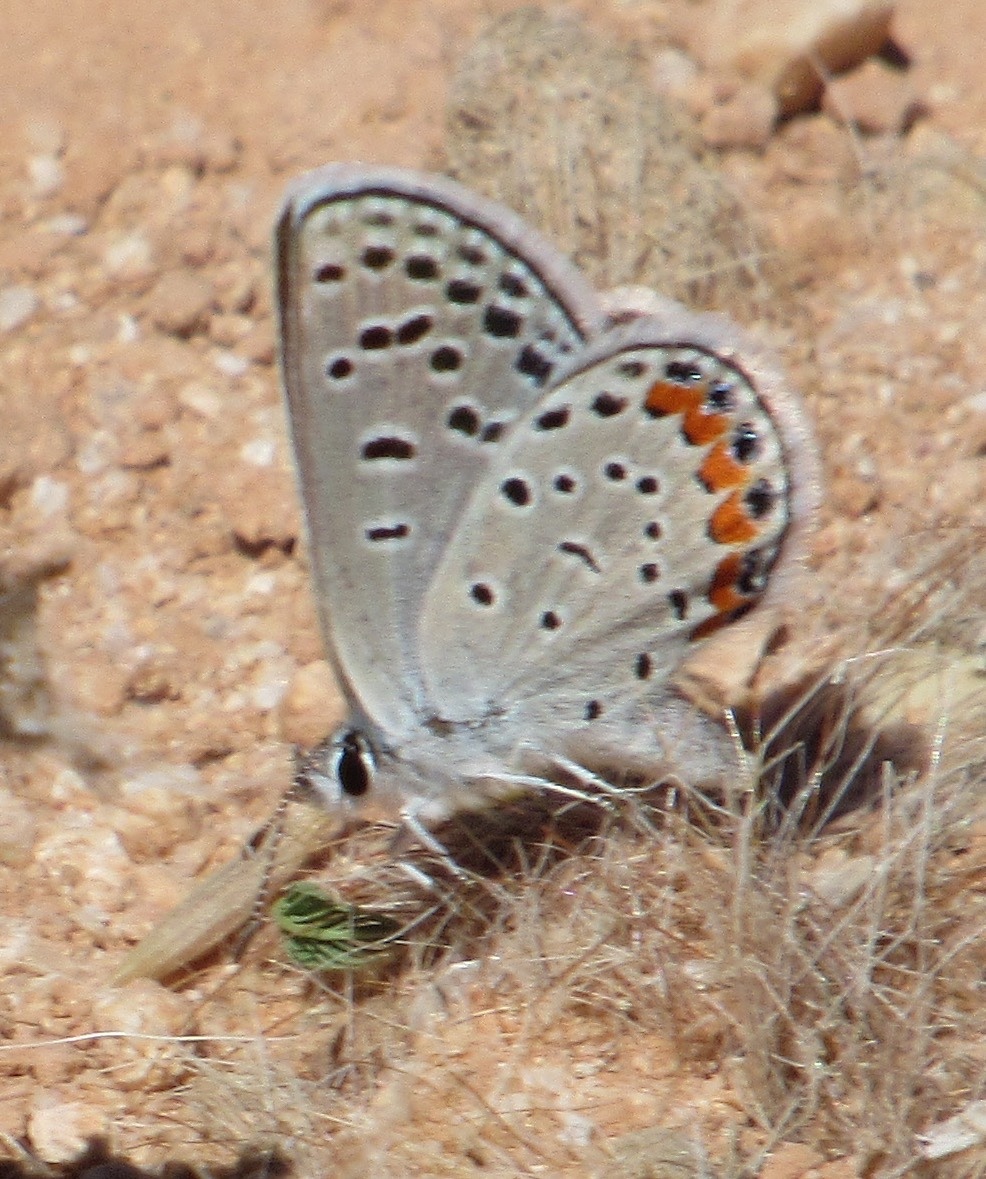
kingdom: Animalia
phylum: Arthropoda
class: Insecta
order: Lepidoptera
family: Lycaenidae
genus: Icaricia
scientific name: Icaricia lupini
